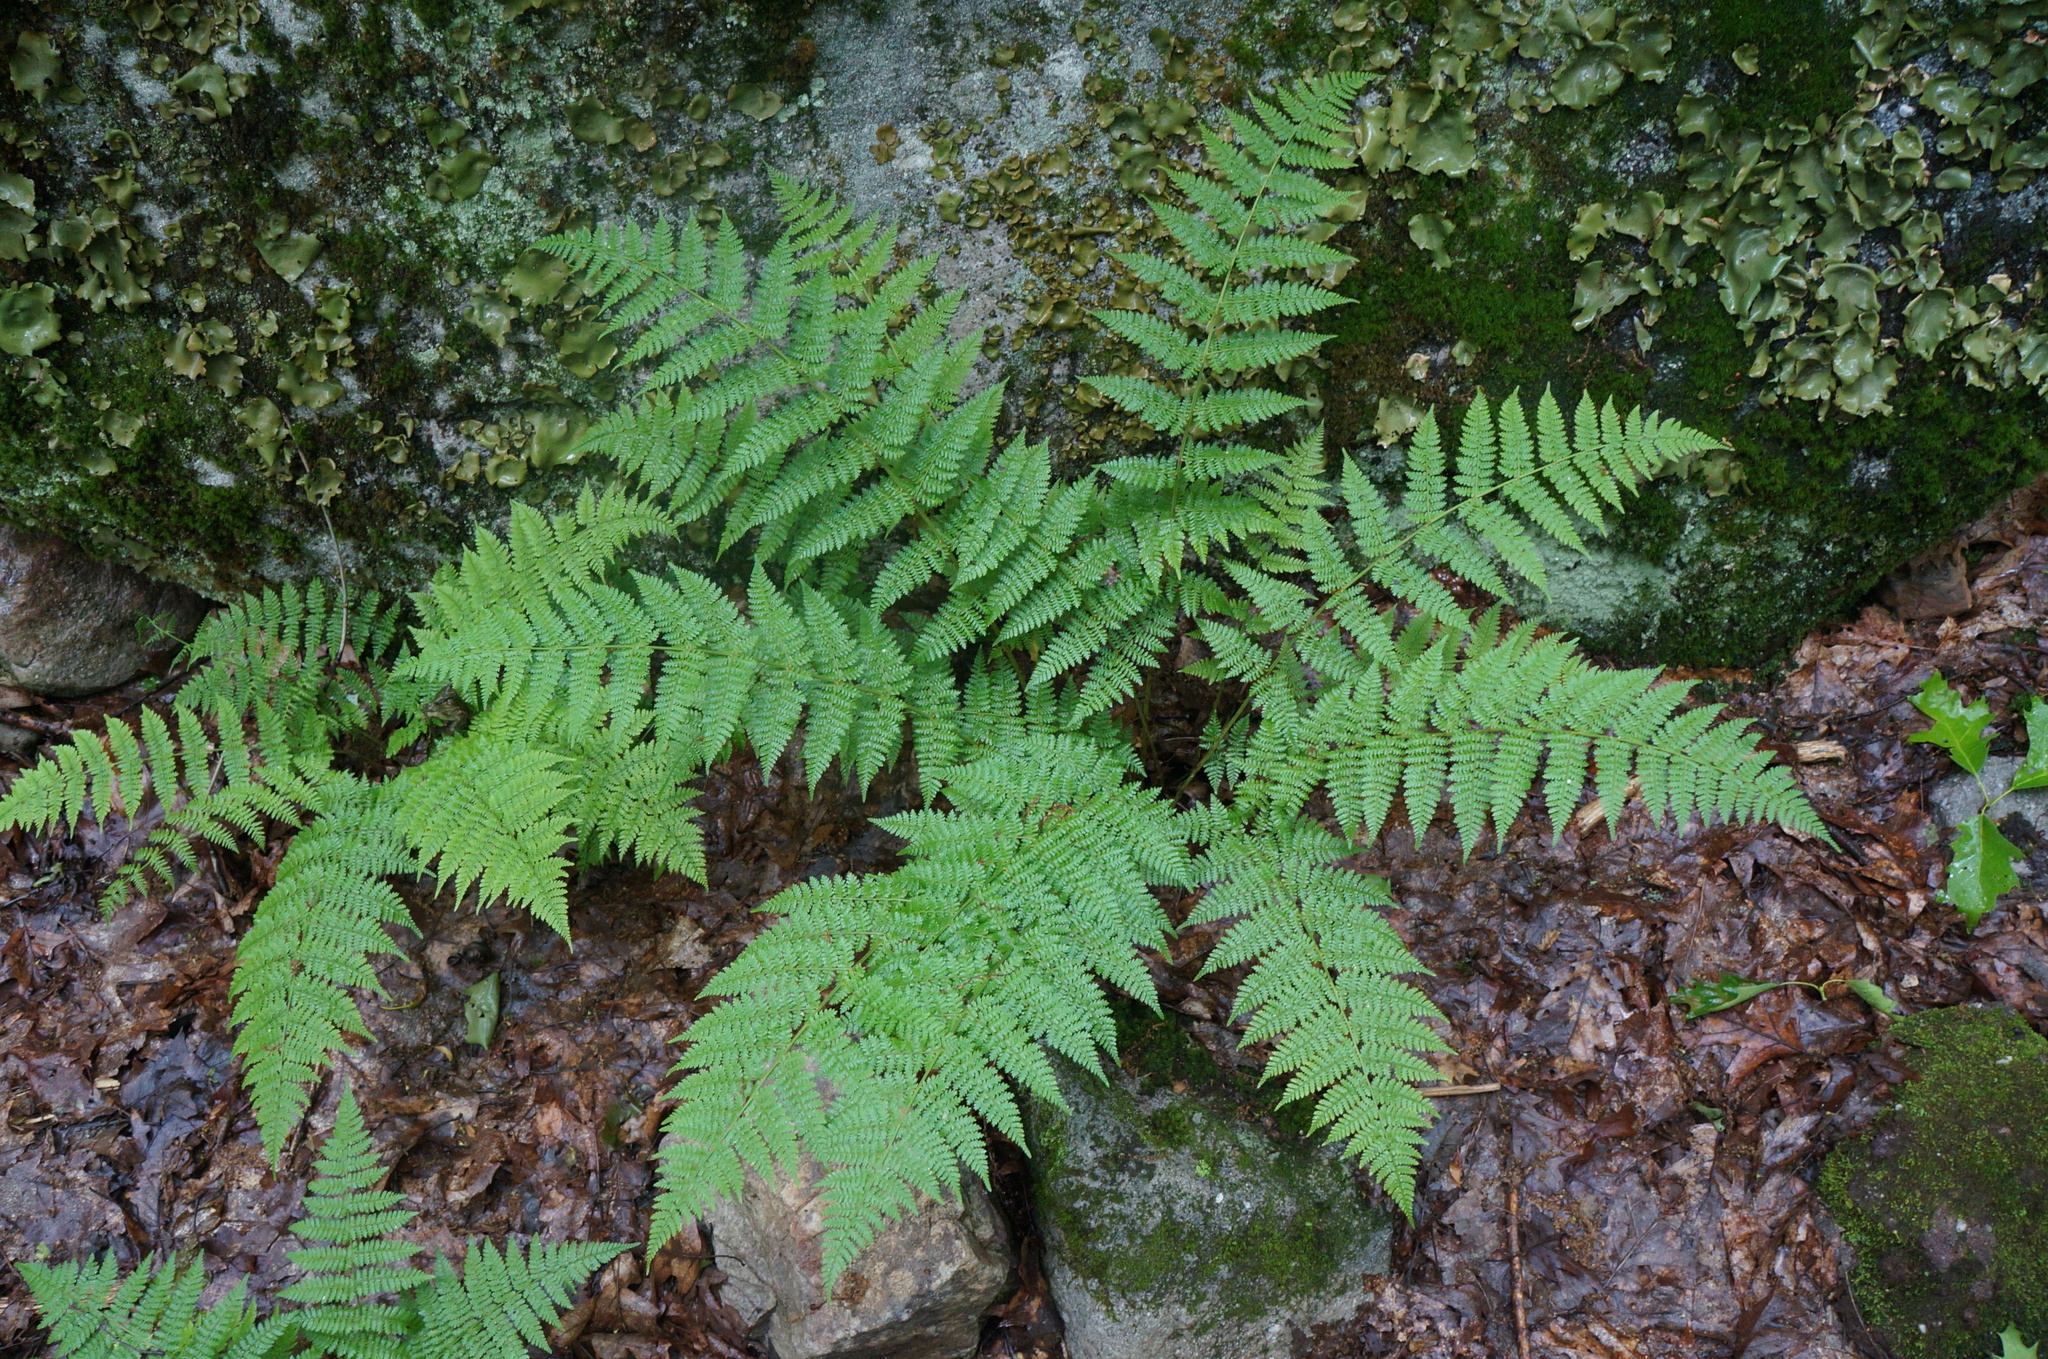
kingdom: Plantae
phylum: Tracheophyta
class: Polypodiopsida
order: Polypodiales
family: Dryopteridaceae
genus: Dryopteris
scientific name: Dryopteris intermedia
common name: Evergreen wood fern
